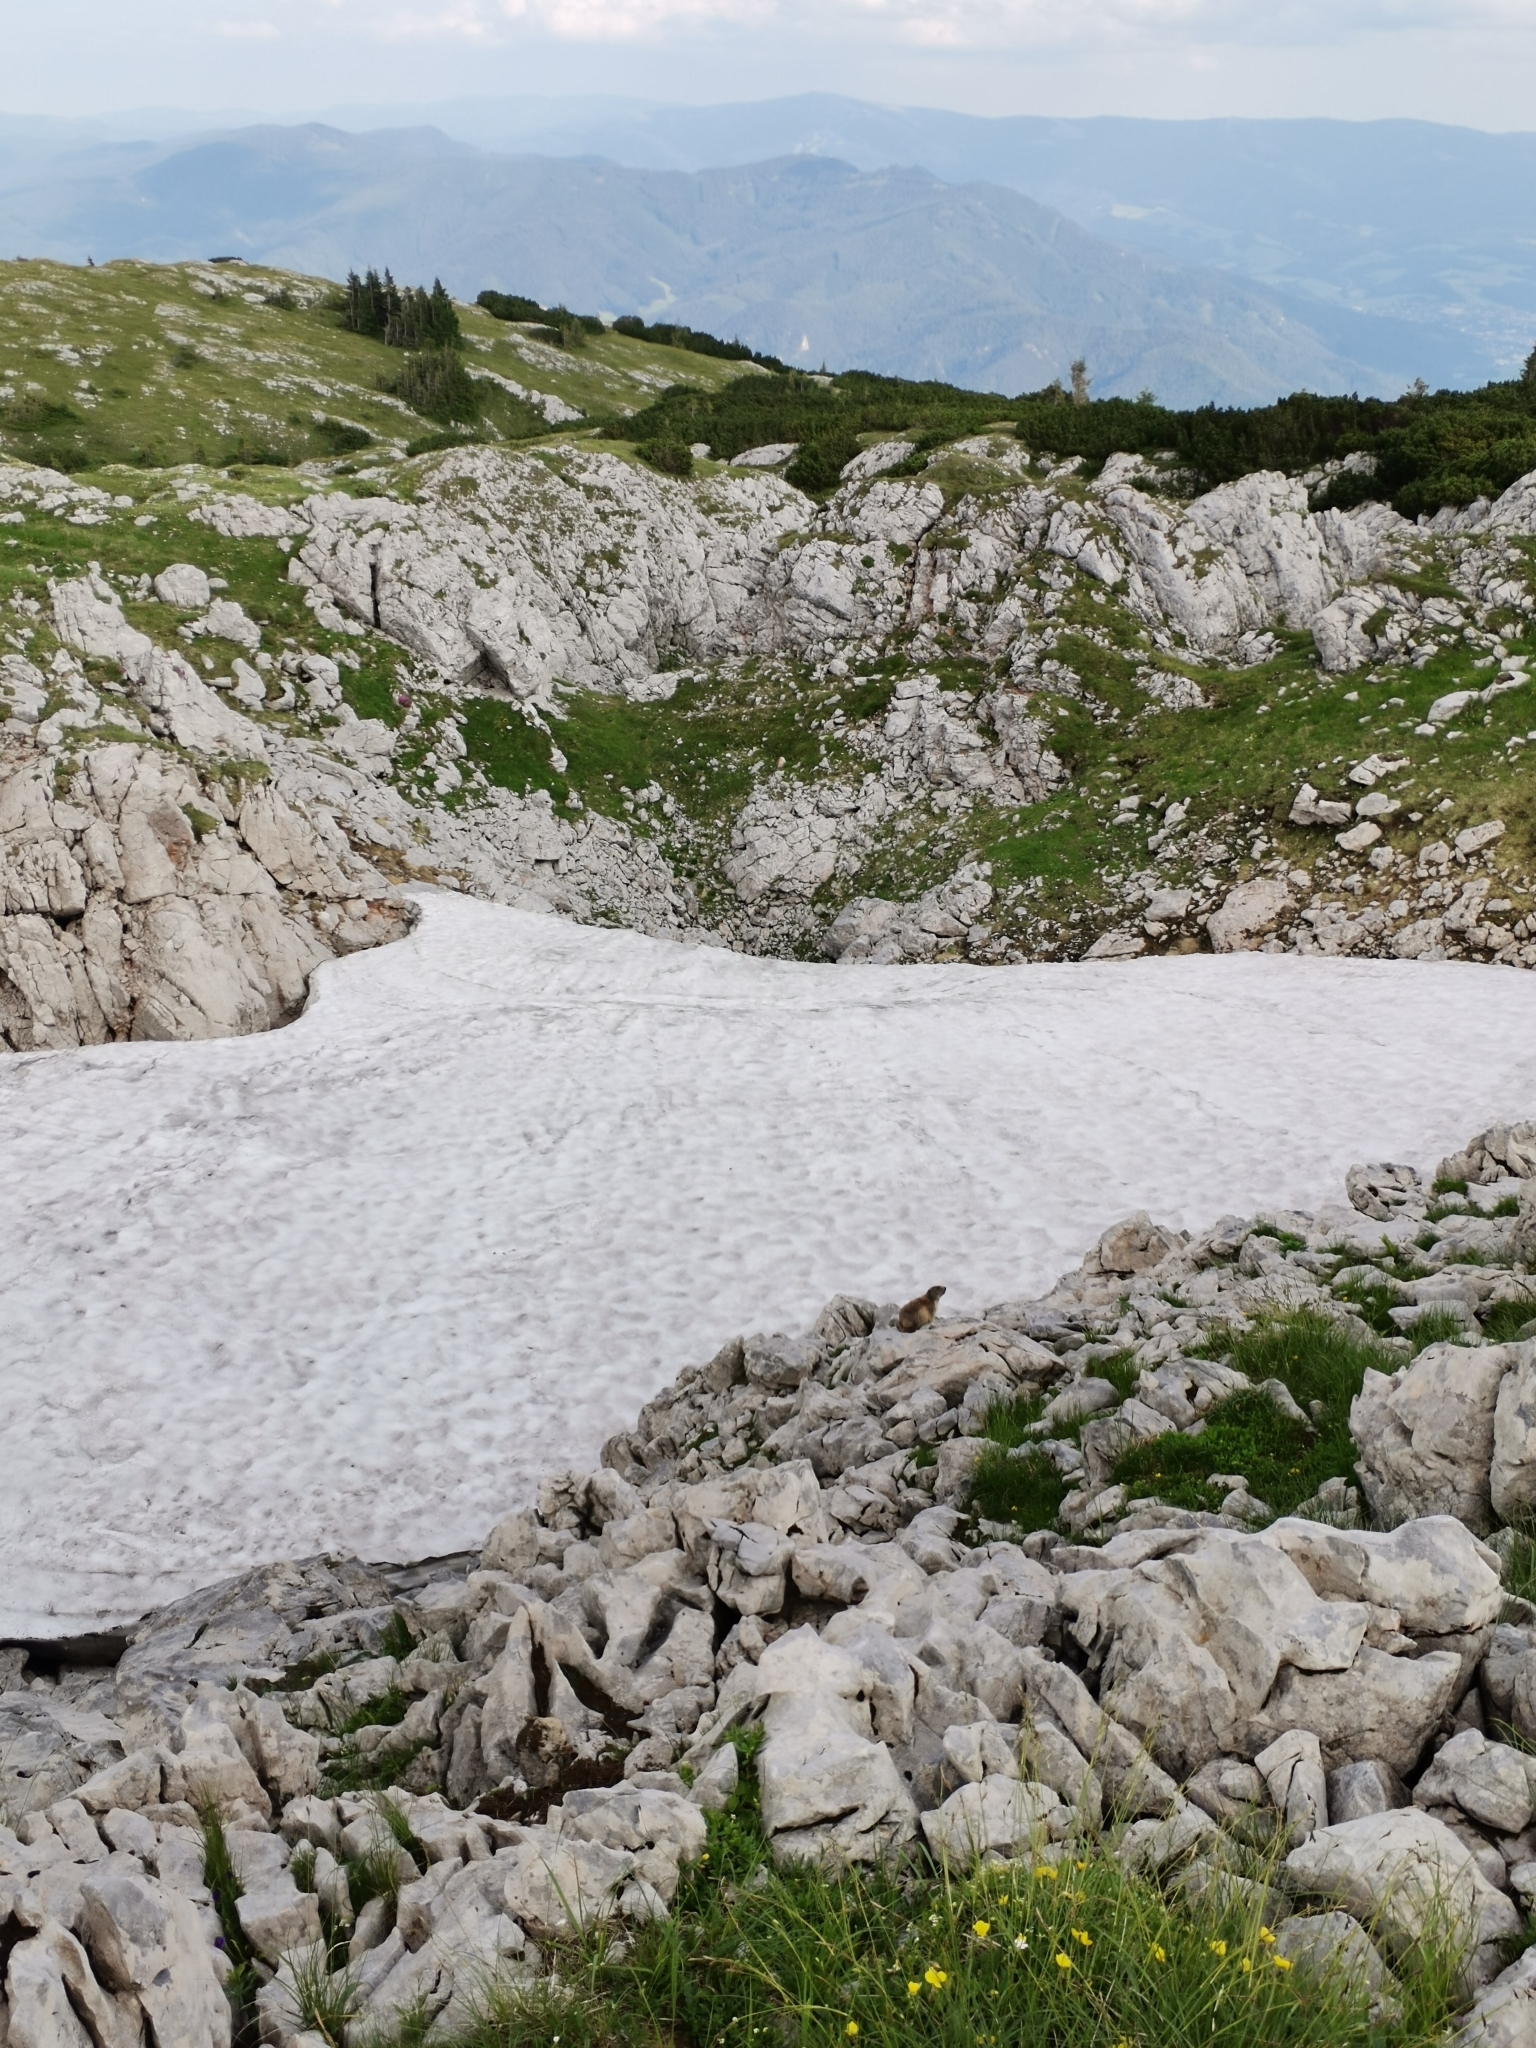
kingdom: Animalia
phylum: Chordata
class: Mammalia
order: Rodentia
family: Sciuridae
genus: Marmota
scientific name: Marmota marmota
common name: Alpine marmot
